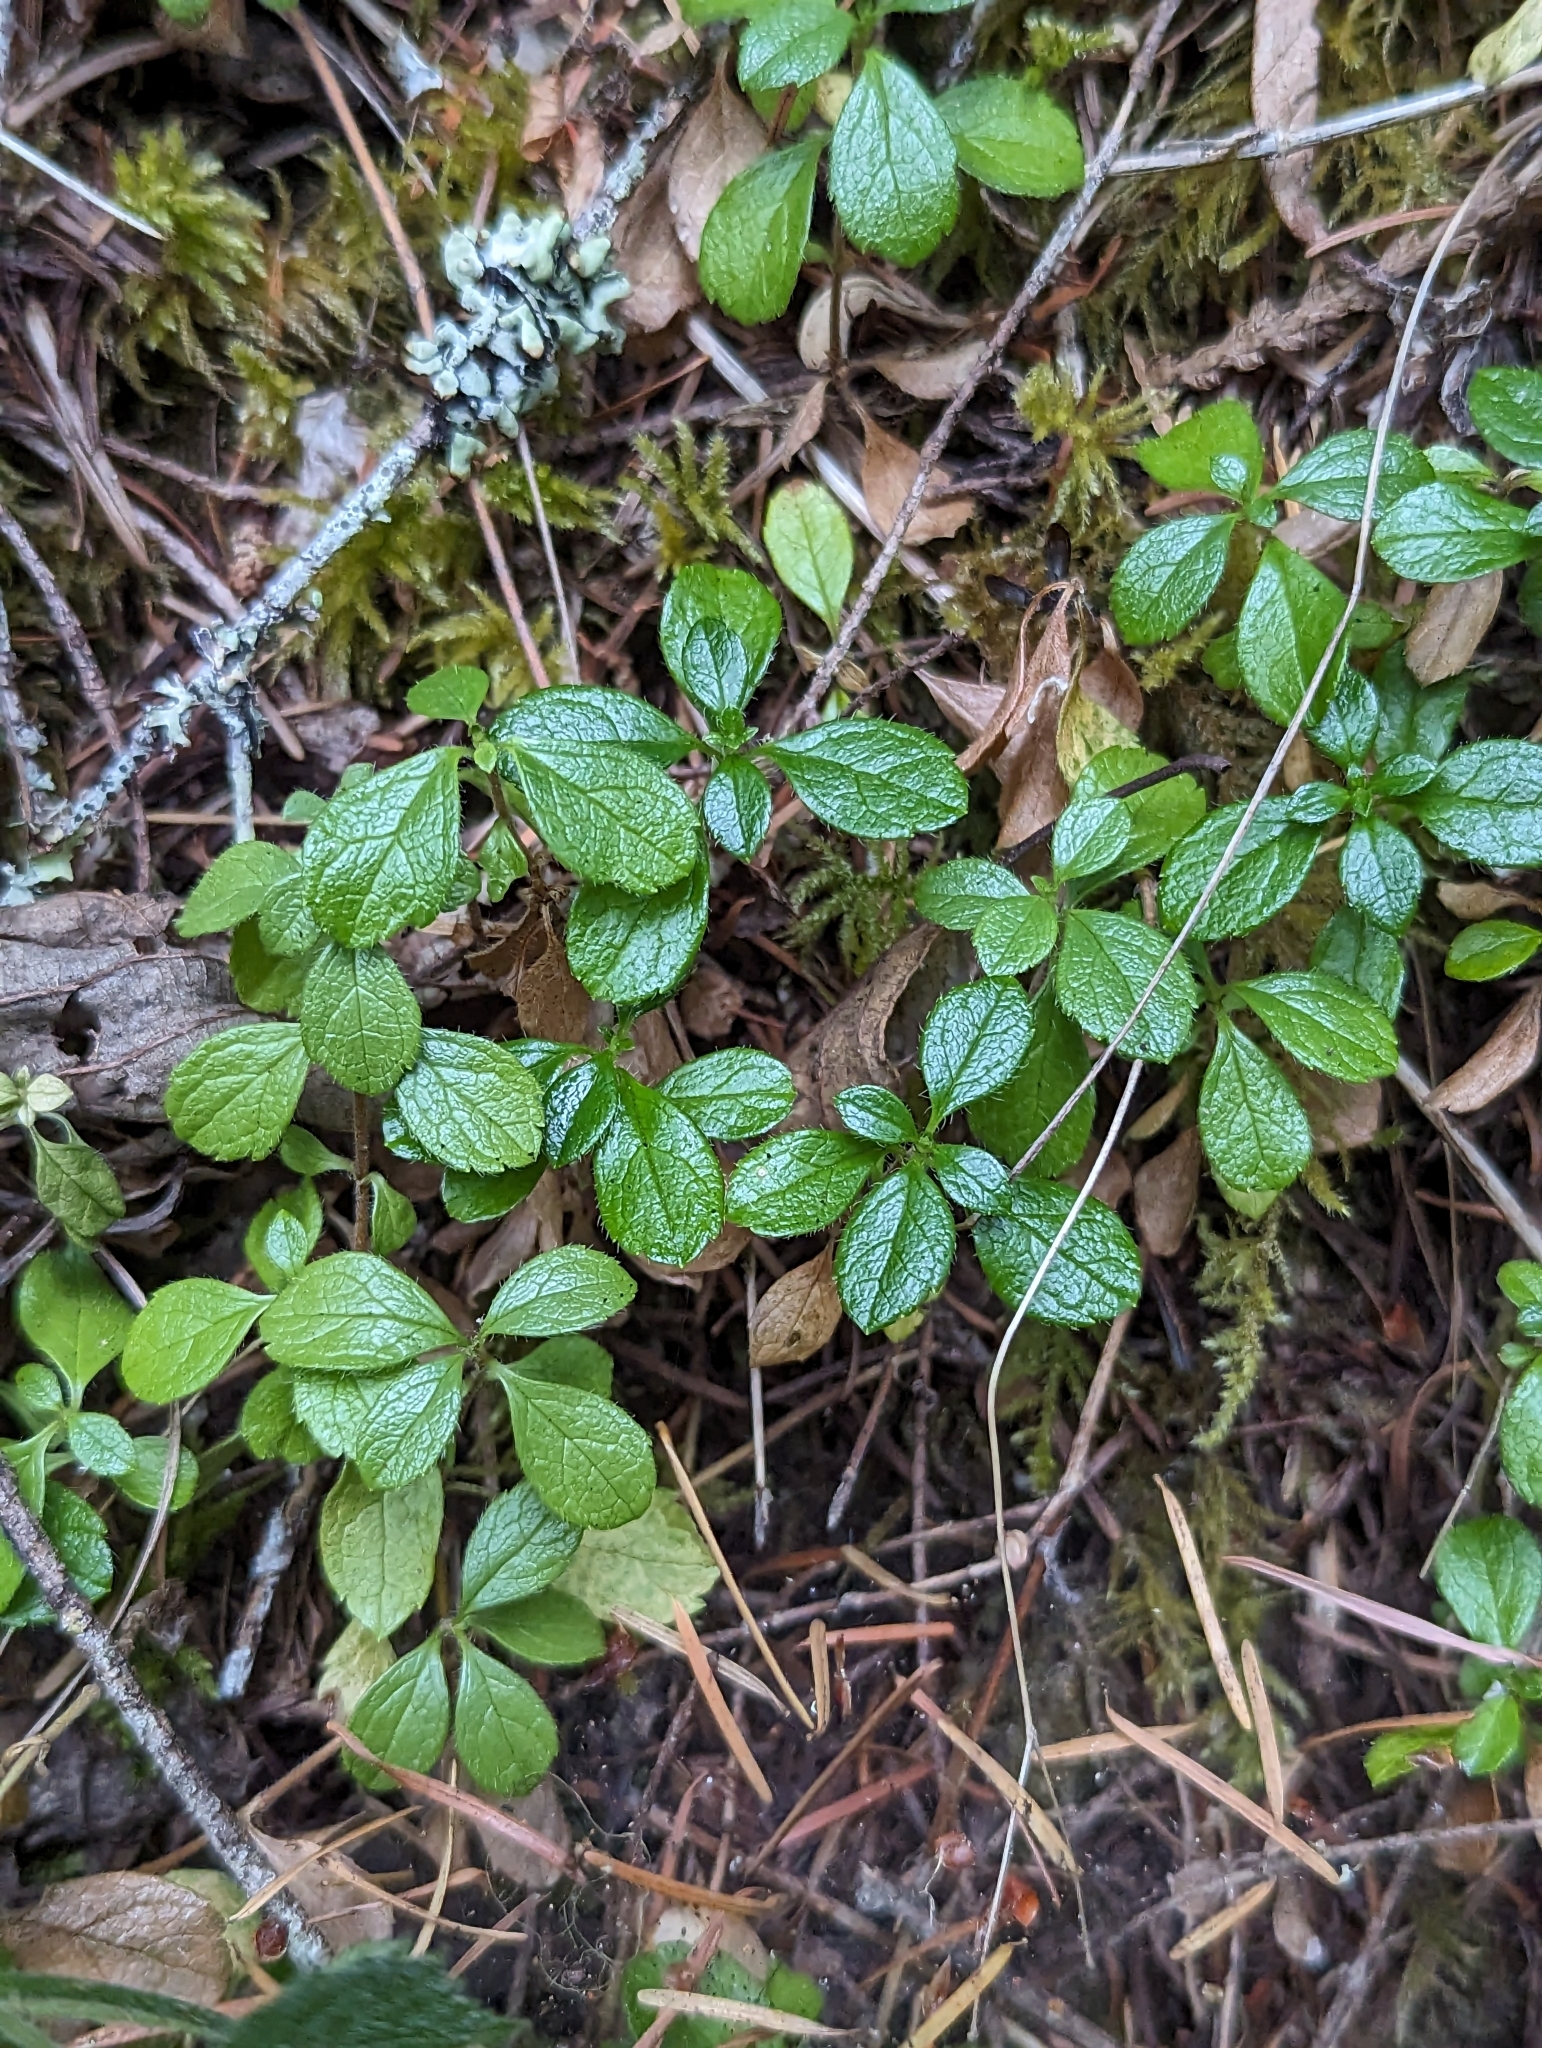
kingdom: Plantae
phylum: Tracheophyta
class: Magnoliopsida
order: Dipsacales
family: Caprifoliaceae
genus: Linnaea
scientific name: Linnaea borealis
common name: Twinflower
